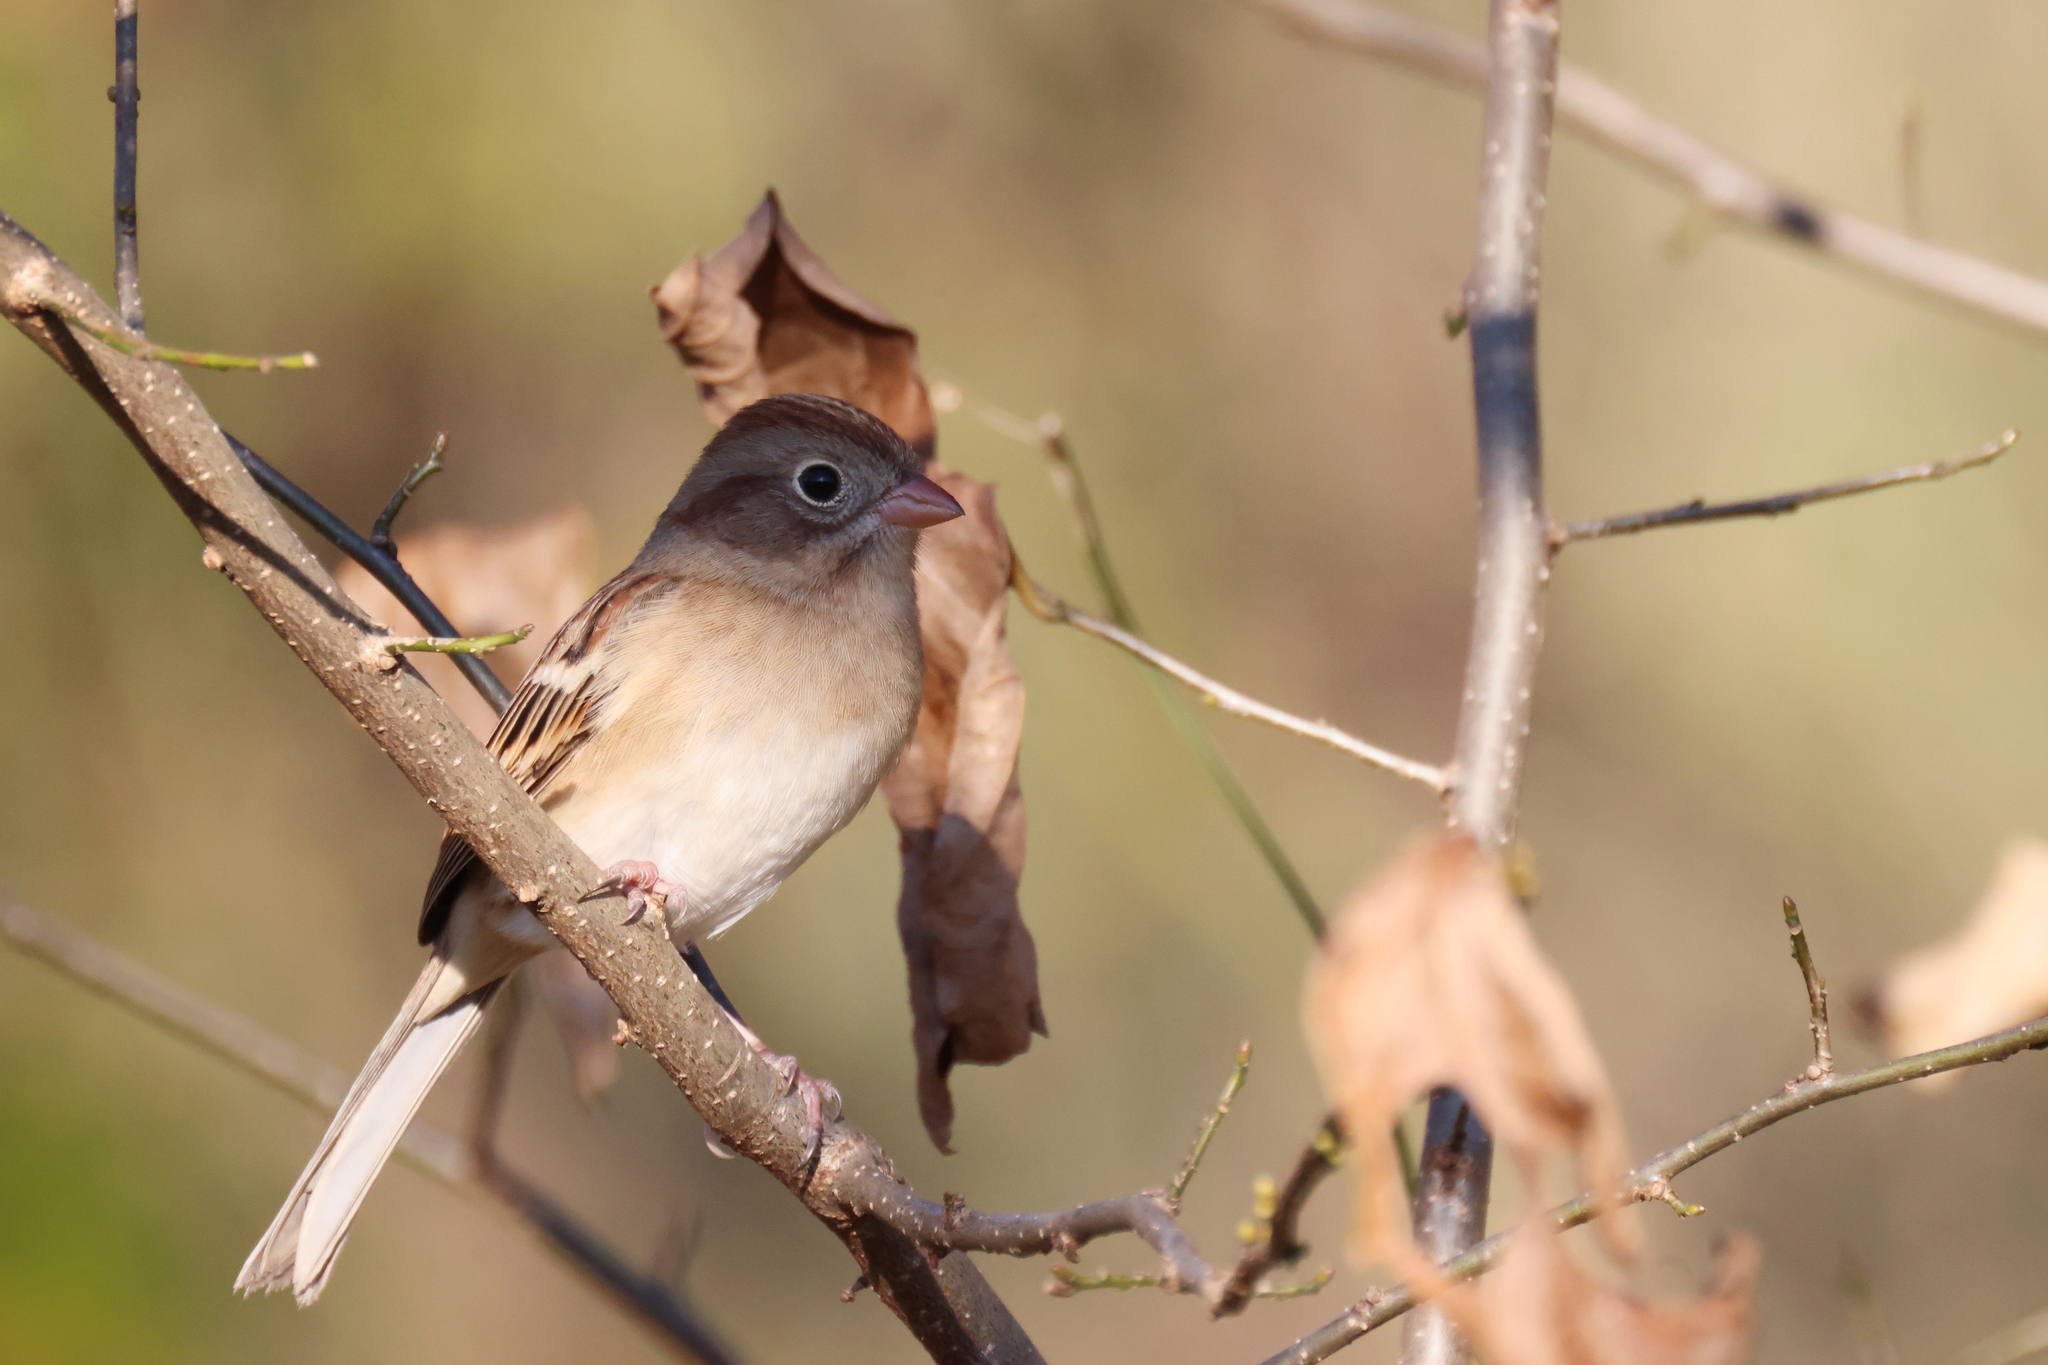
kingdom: Animalia
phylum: Chordata
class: Aves
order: Passeriformes
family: Passerellidae
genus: Spizella
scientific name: Spizella pusilla
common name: Field sparrow
